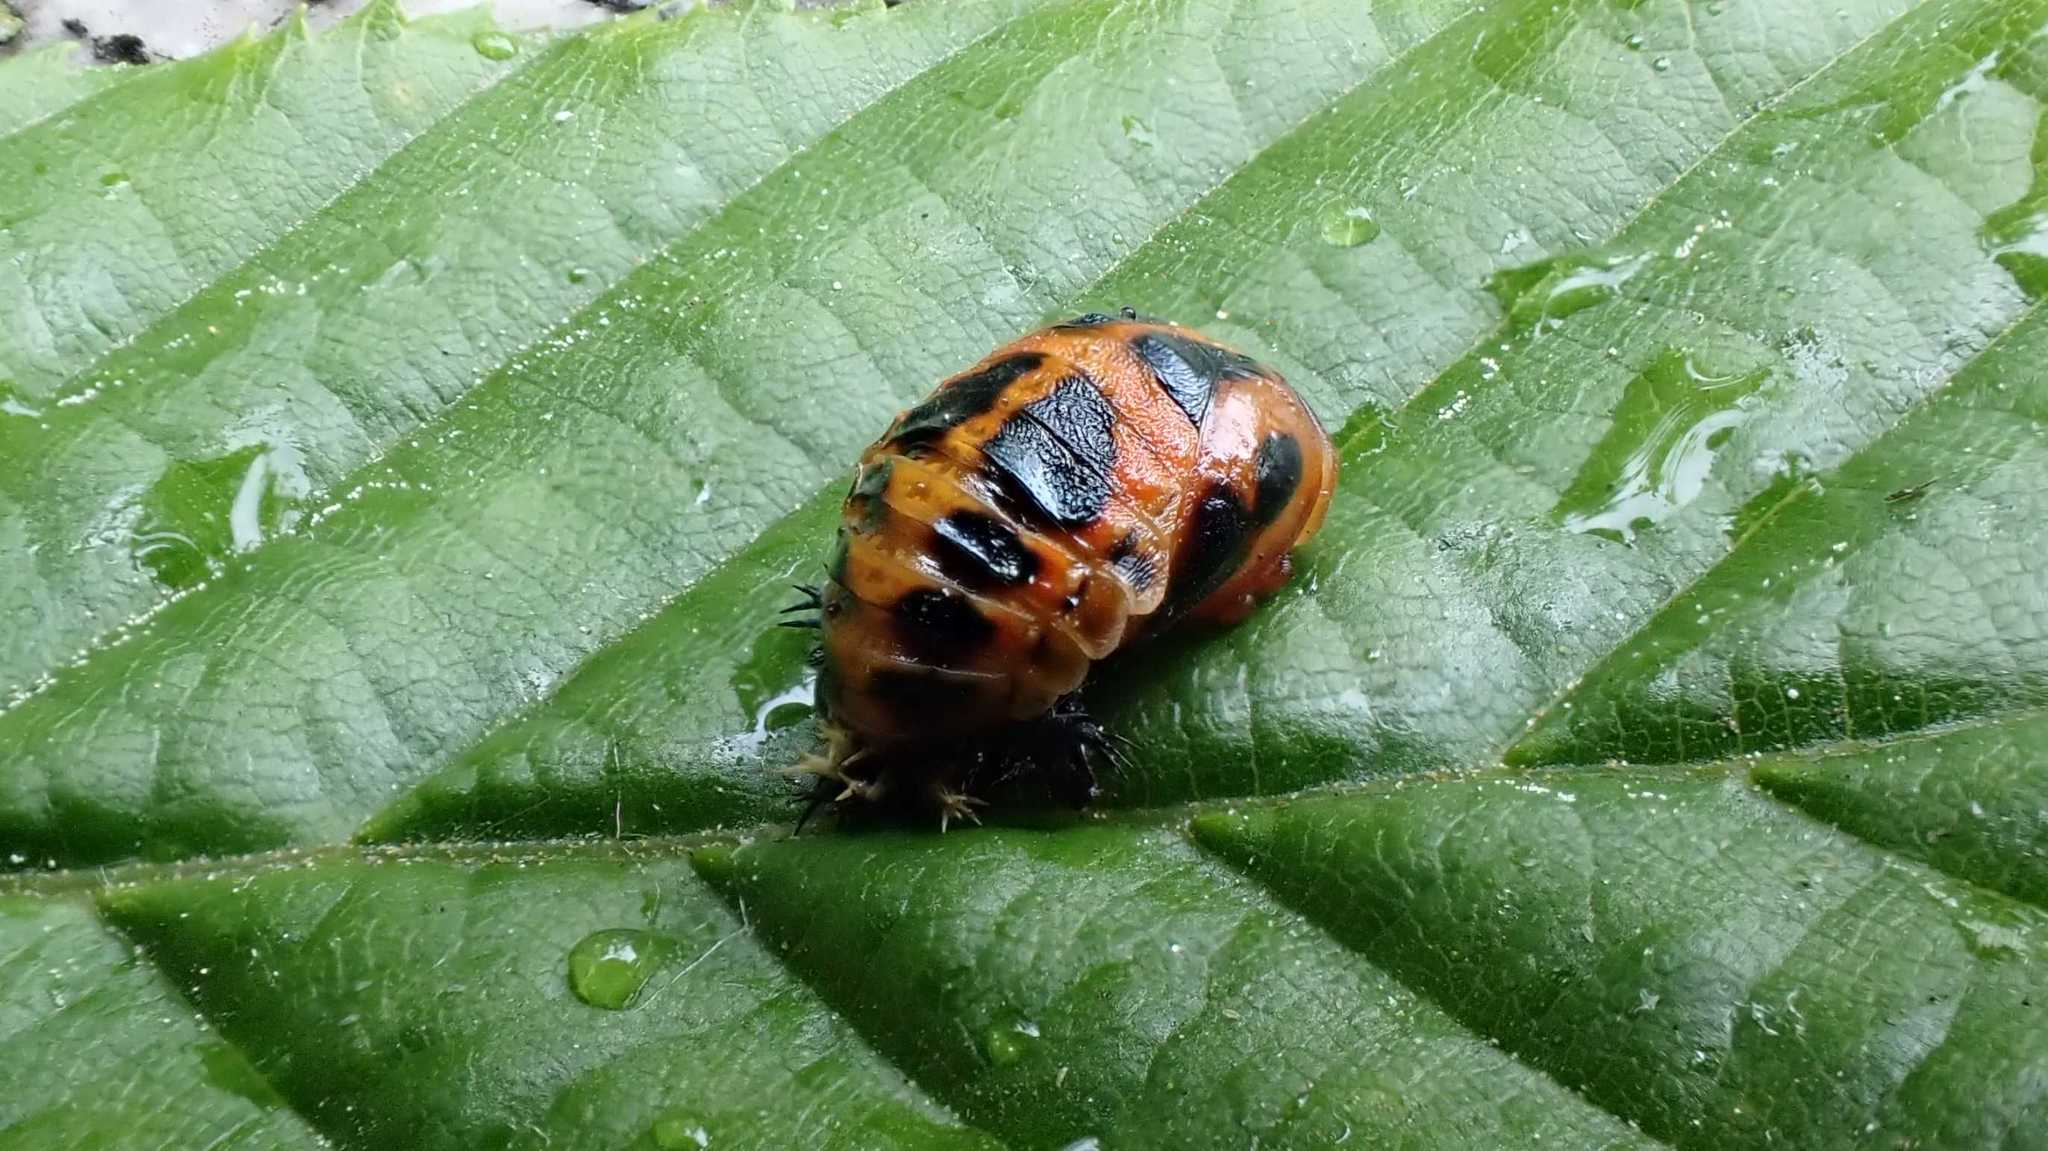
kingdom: Animalia
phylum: Arthropoda
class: Insecta
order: Coleoptera
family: Coccinellidae
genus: Harmonia
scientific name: Harmonia axyridis
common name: Harlequin ladybird
